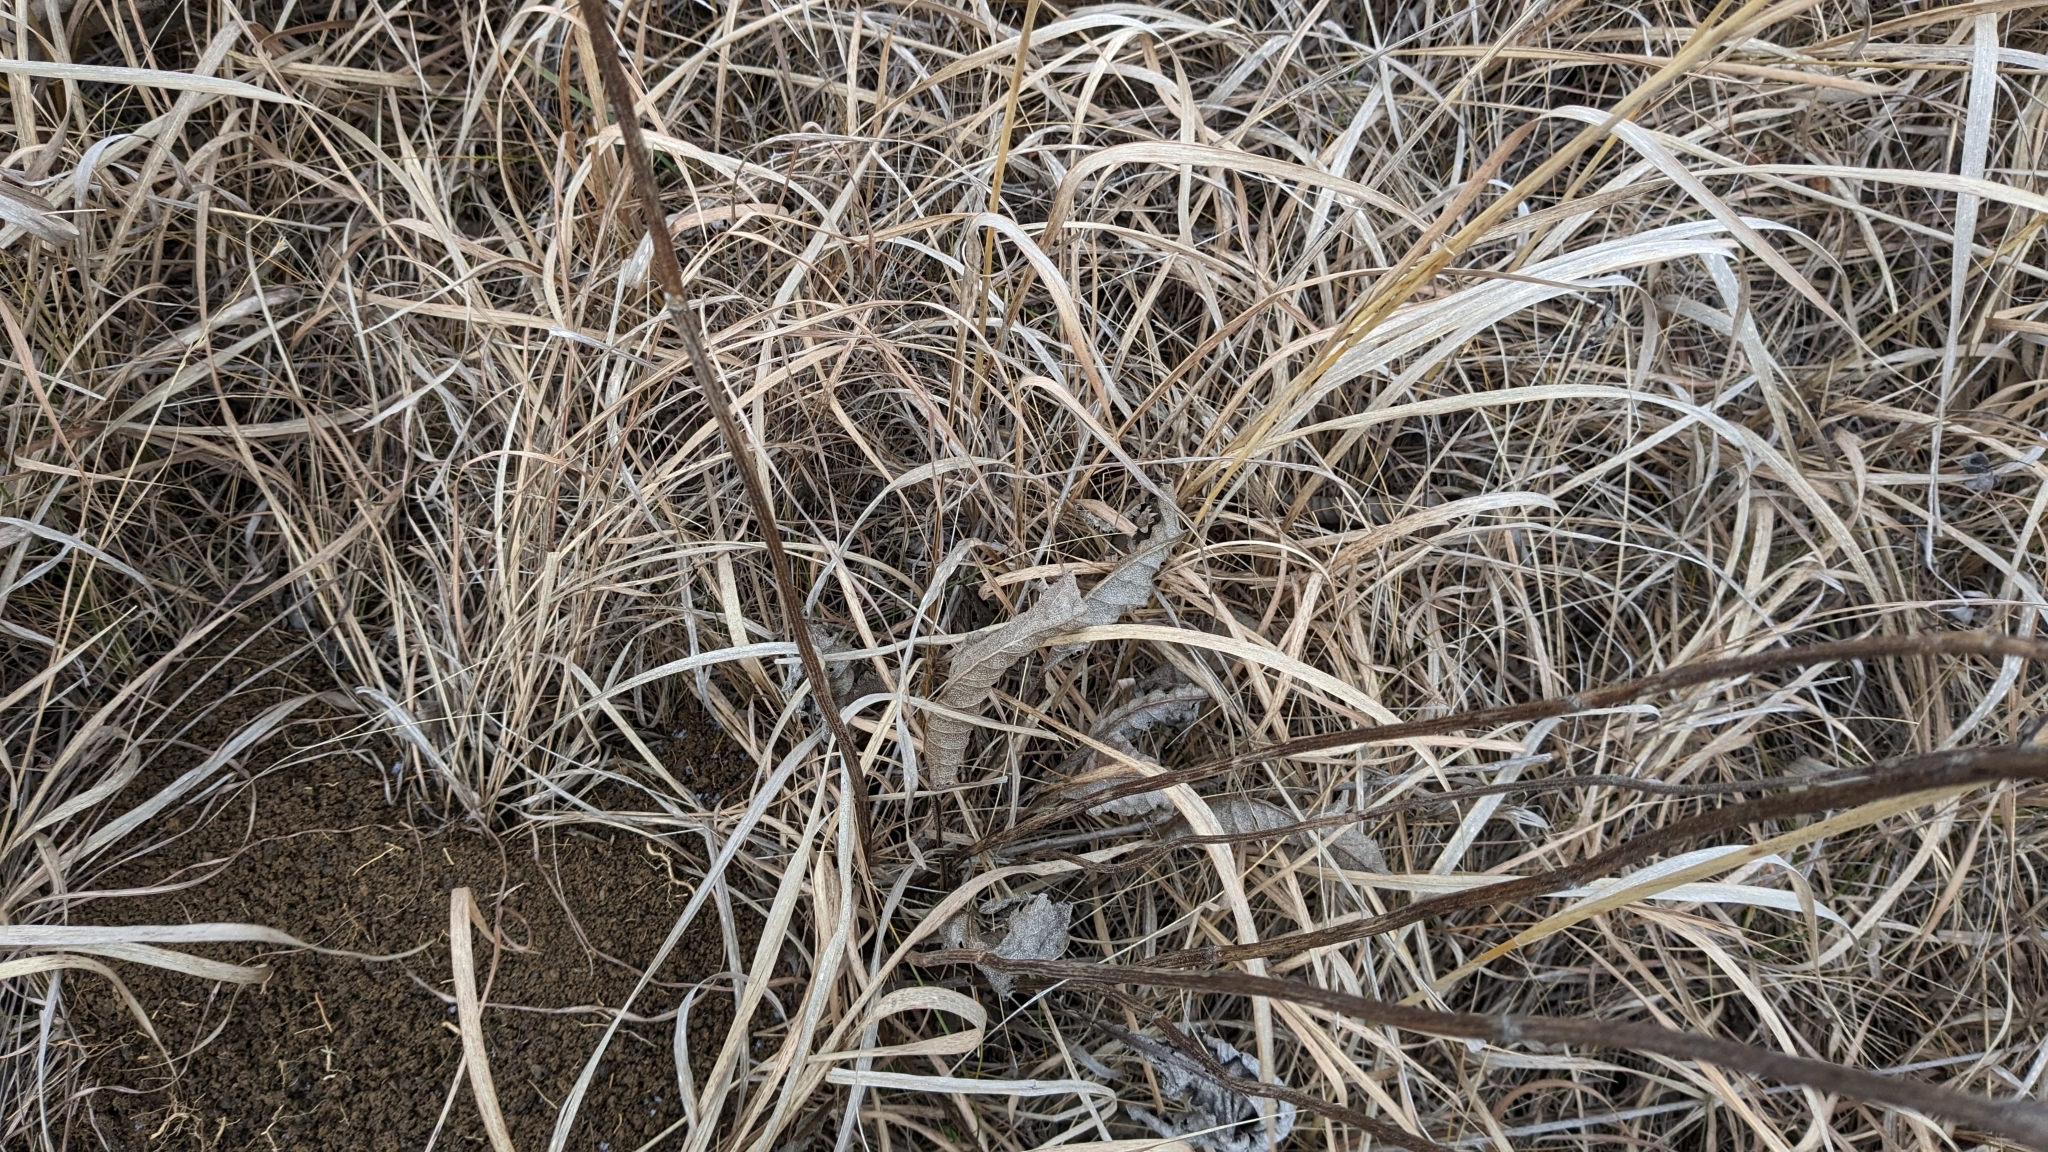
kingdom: Plantae
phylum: Tracheophyta
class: Magnoliopsida
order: Solanales
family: Solanaceae
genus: Solanum
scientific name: Solanum carolinense
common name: Horse-nettle
